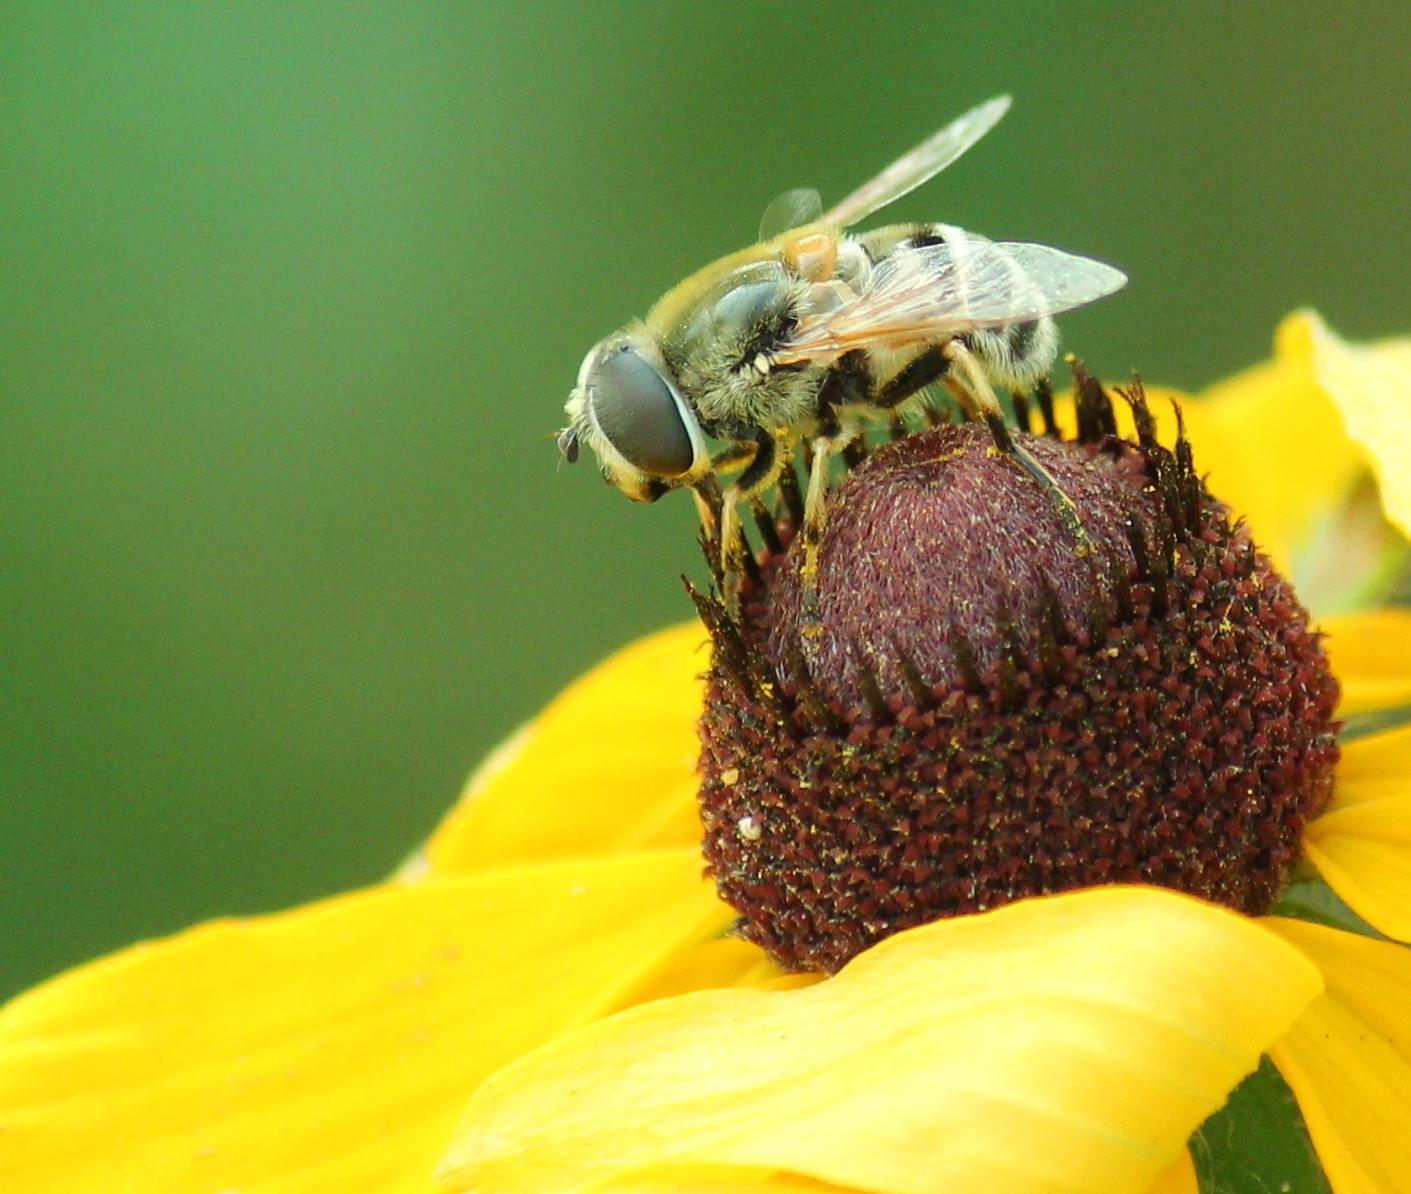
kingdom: Animalia
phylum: Arthropoda
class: Insecta
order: Diptera
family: Syrphidae
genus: Eristalis
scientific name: Eristalis stipator
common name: Yellow-shouldered drone fly
